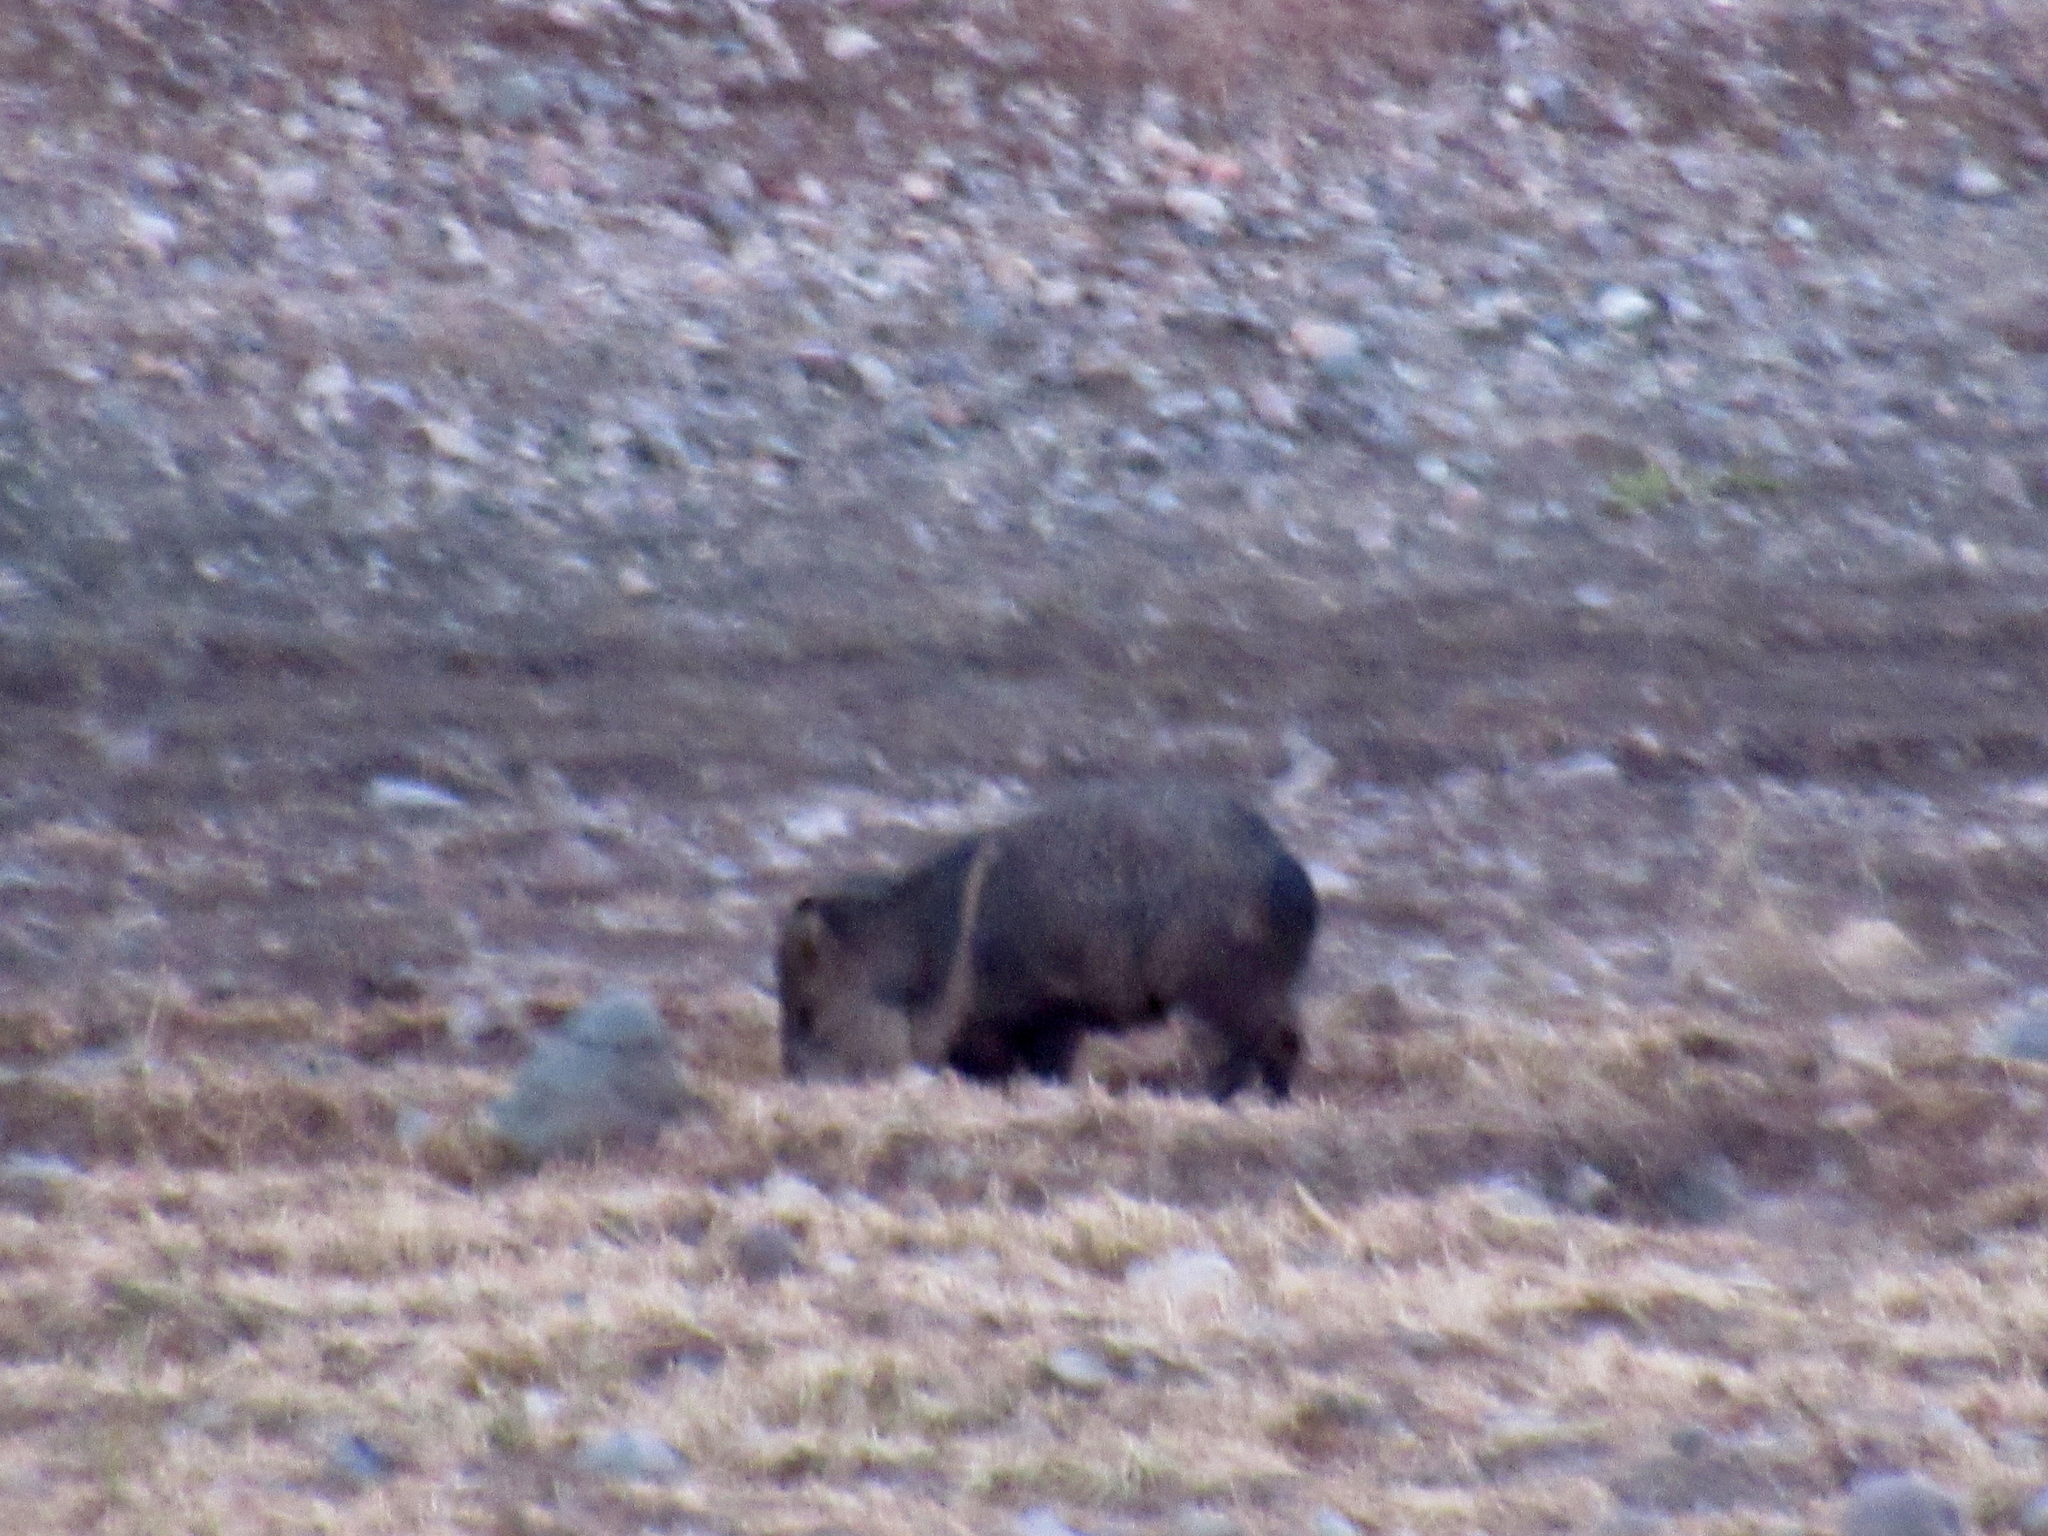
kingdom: Animalia
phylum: Chordata
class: Mammalia
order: Artiodactyla
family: Tayassuidae
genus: Pecari
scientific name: Pecari tajacu
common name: Collared peccary
